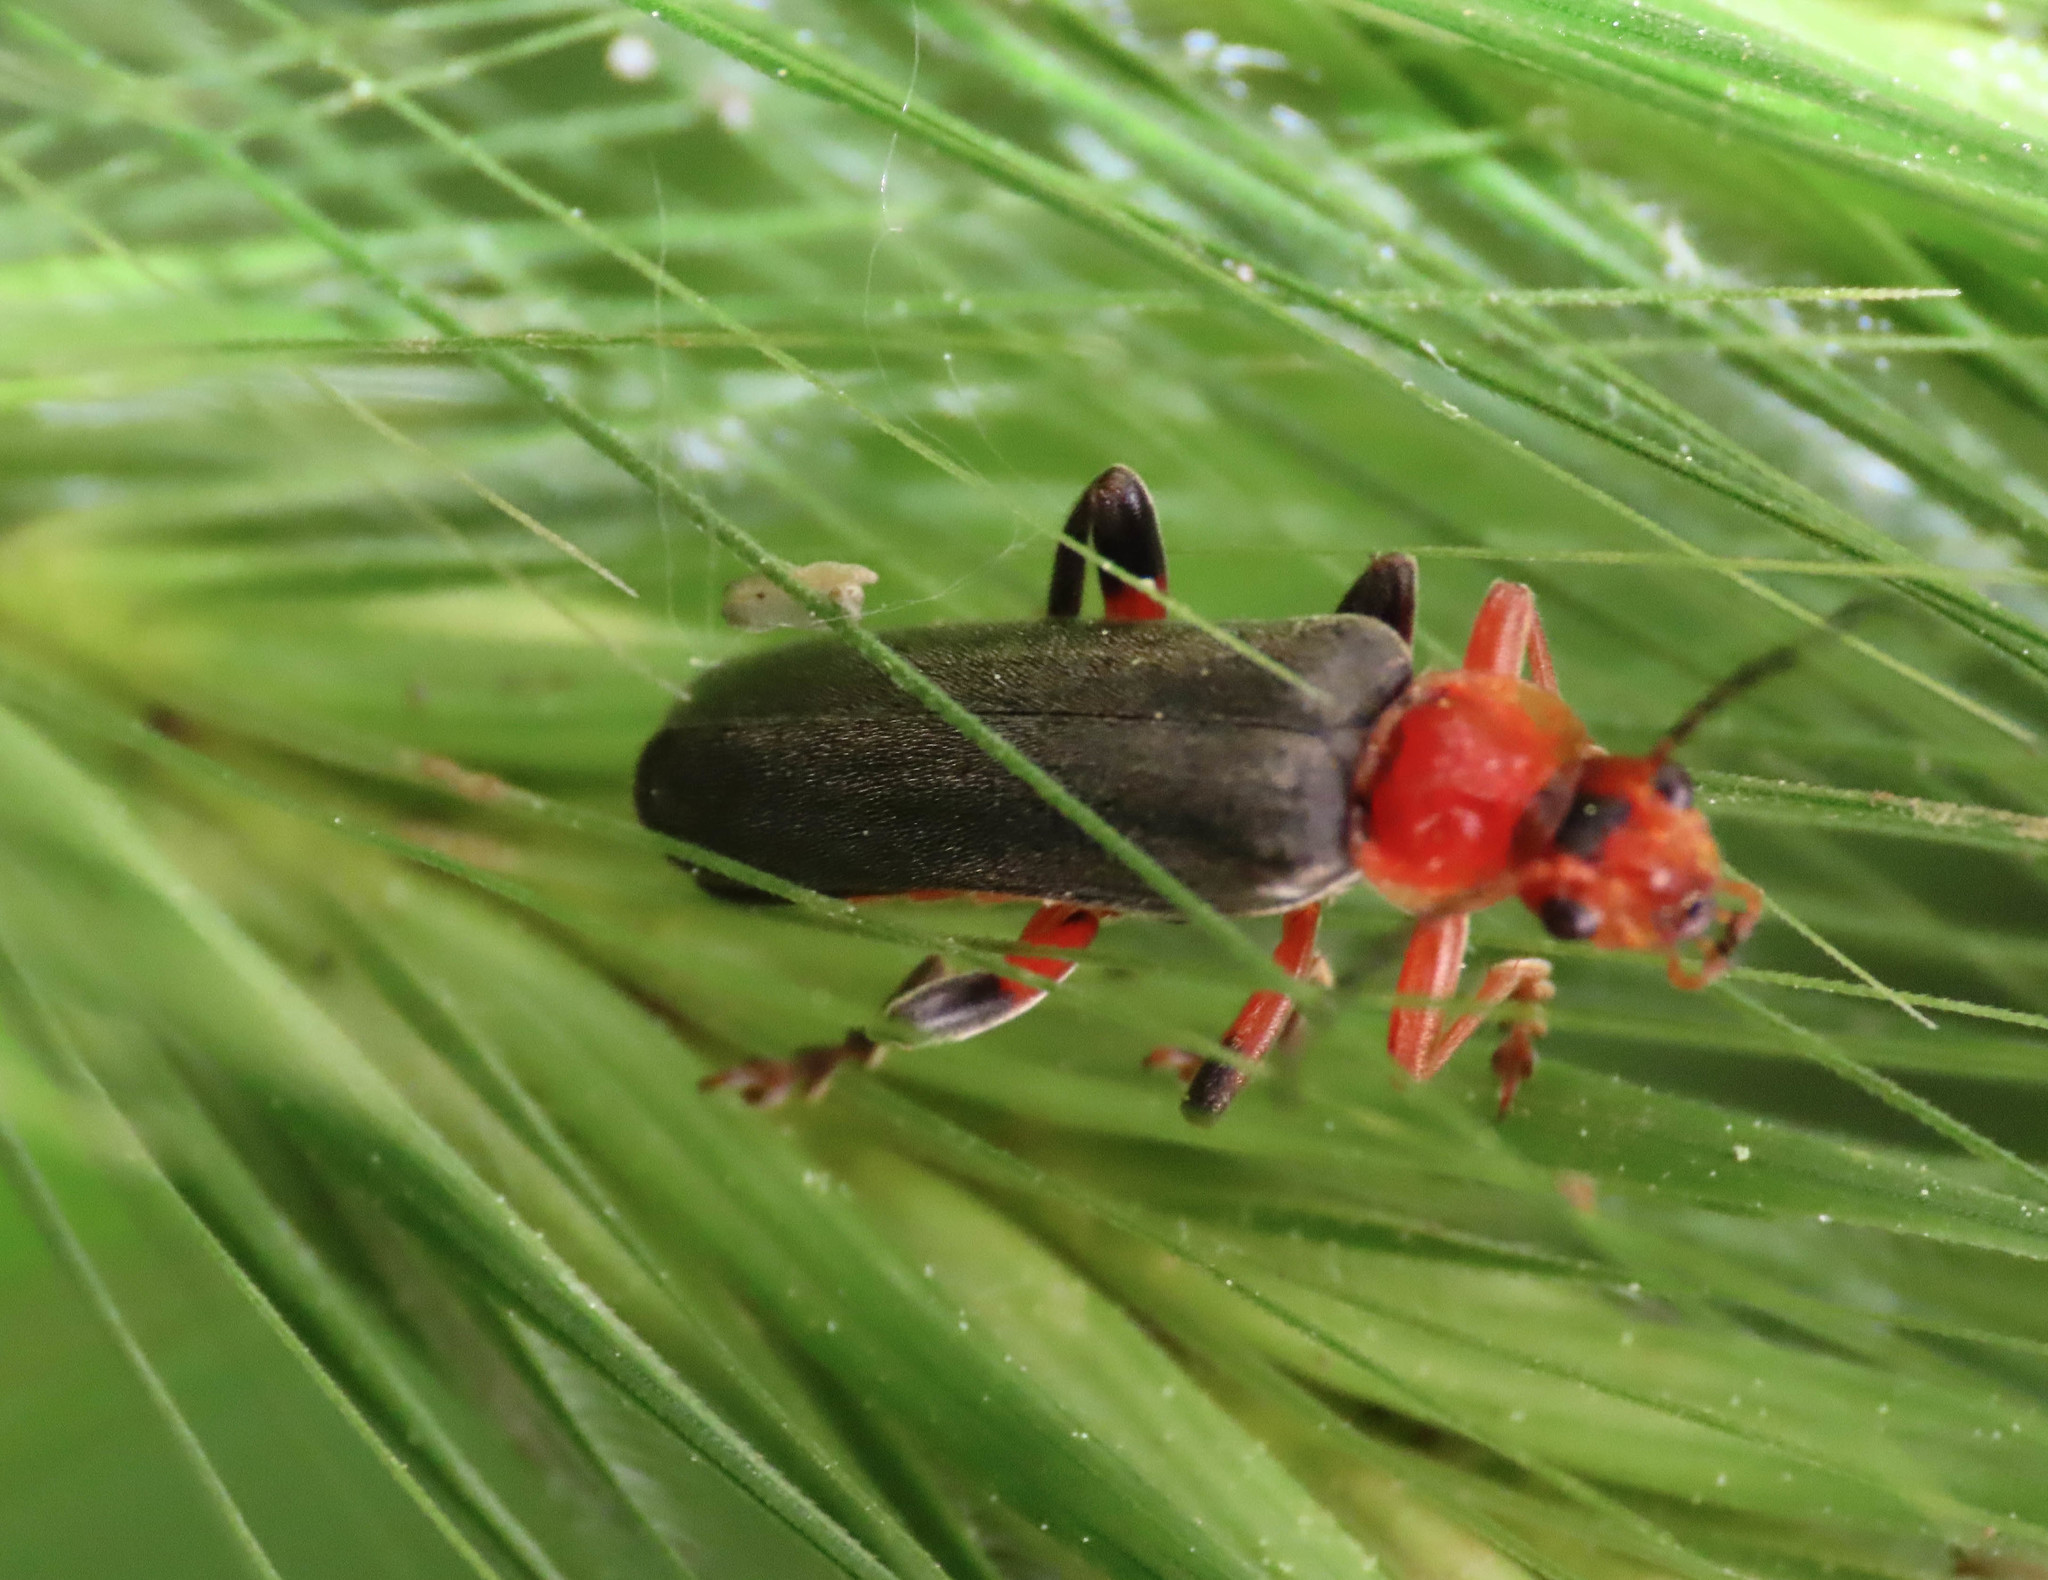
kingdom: Animalia
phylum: Arthropoda
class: Insecta
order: Coleoptera
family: Cantharidae
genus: Cantharis
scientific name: Cantharis livida
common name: Livid soldier beetle
